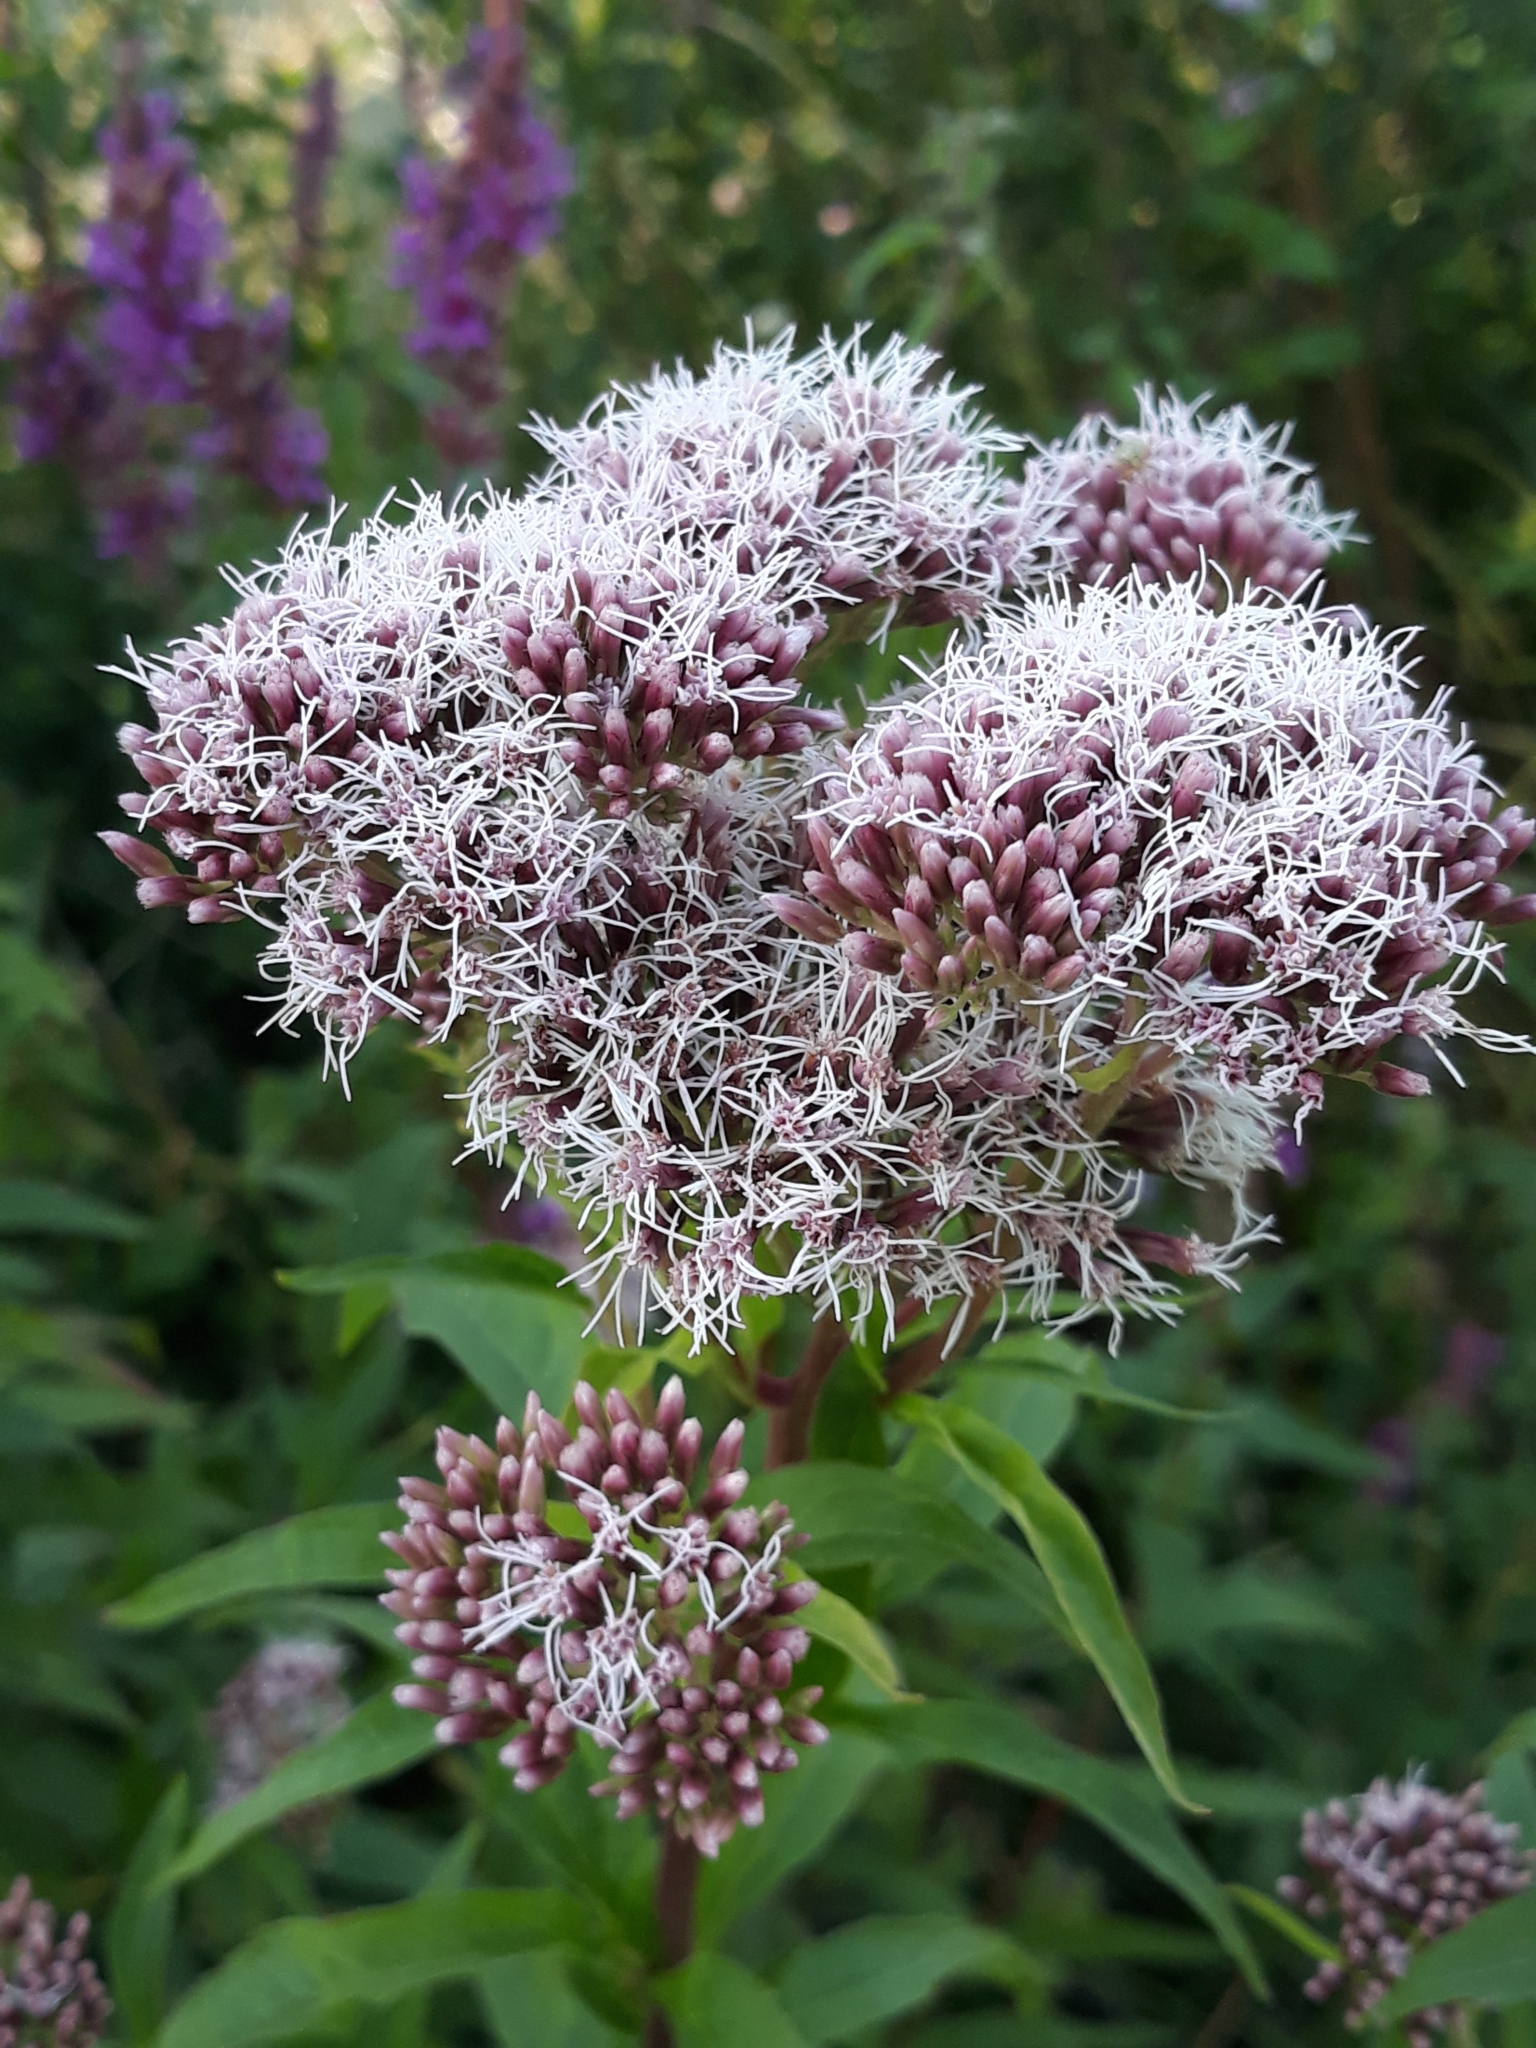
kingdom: Plantae
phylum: Tracheophyta
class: Magnoliopsida
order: Asterales
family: Asteraceae
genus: Eupatorium
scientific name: Eupatorium cannabinum
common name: Hemp-agrimony
